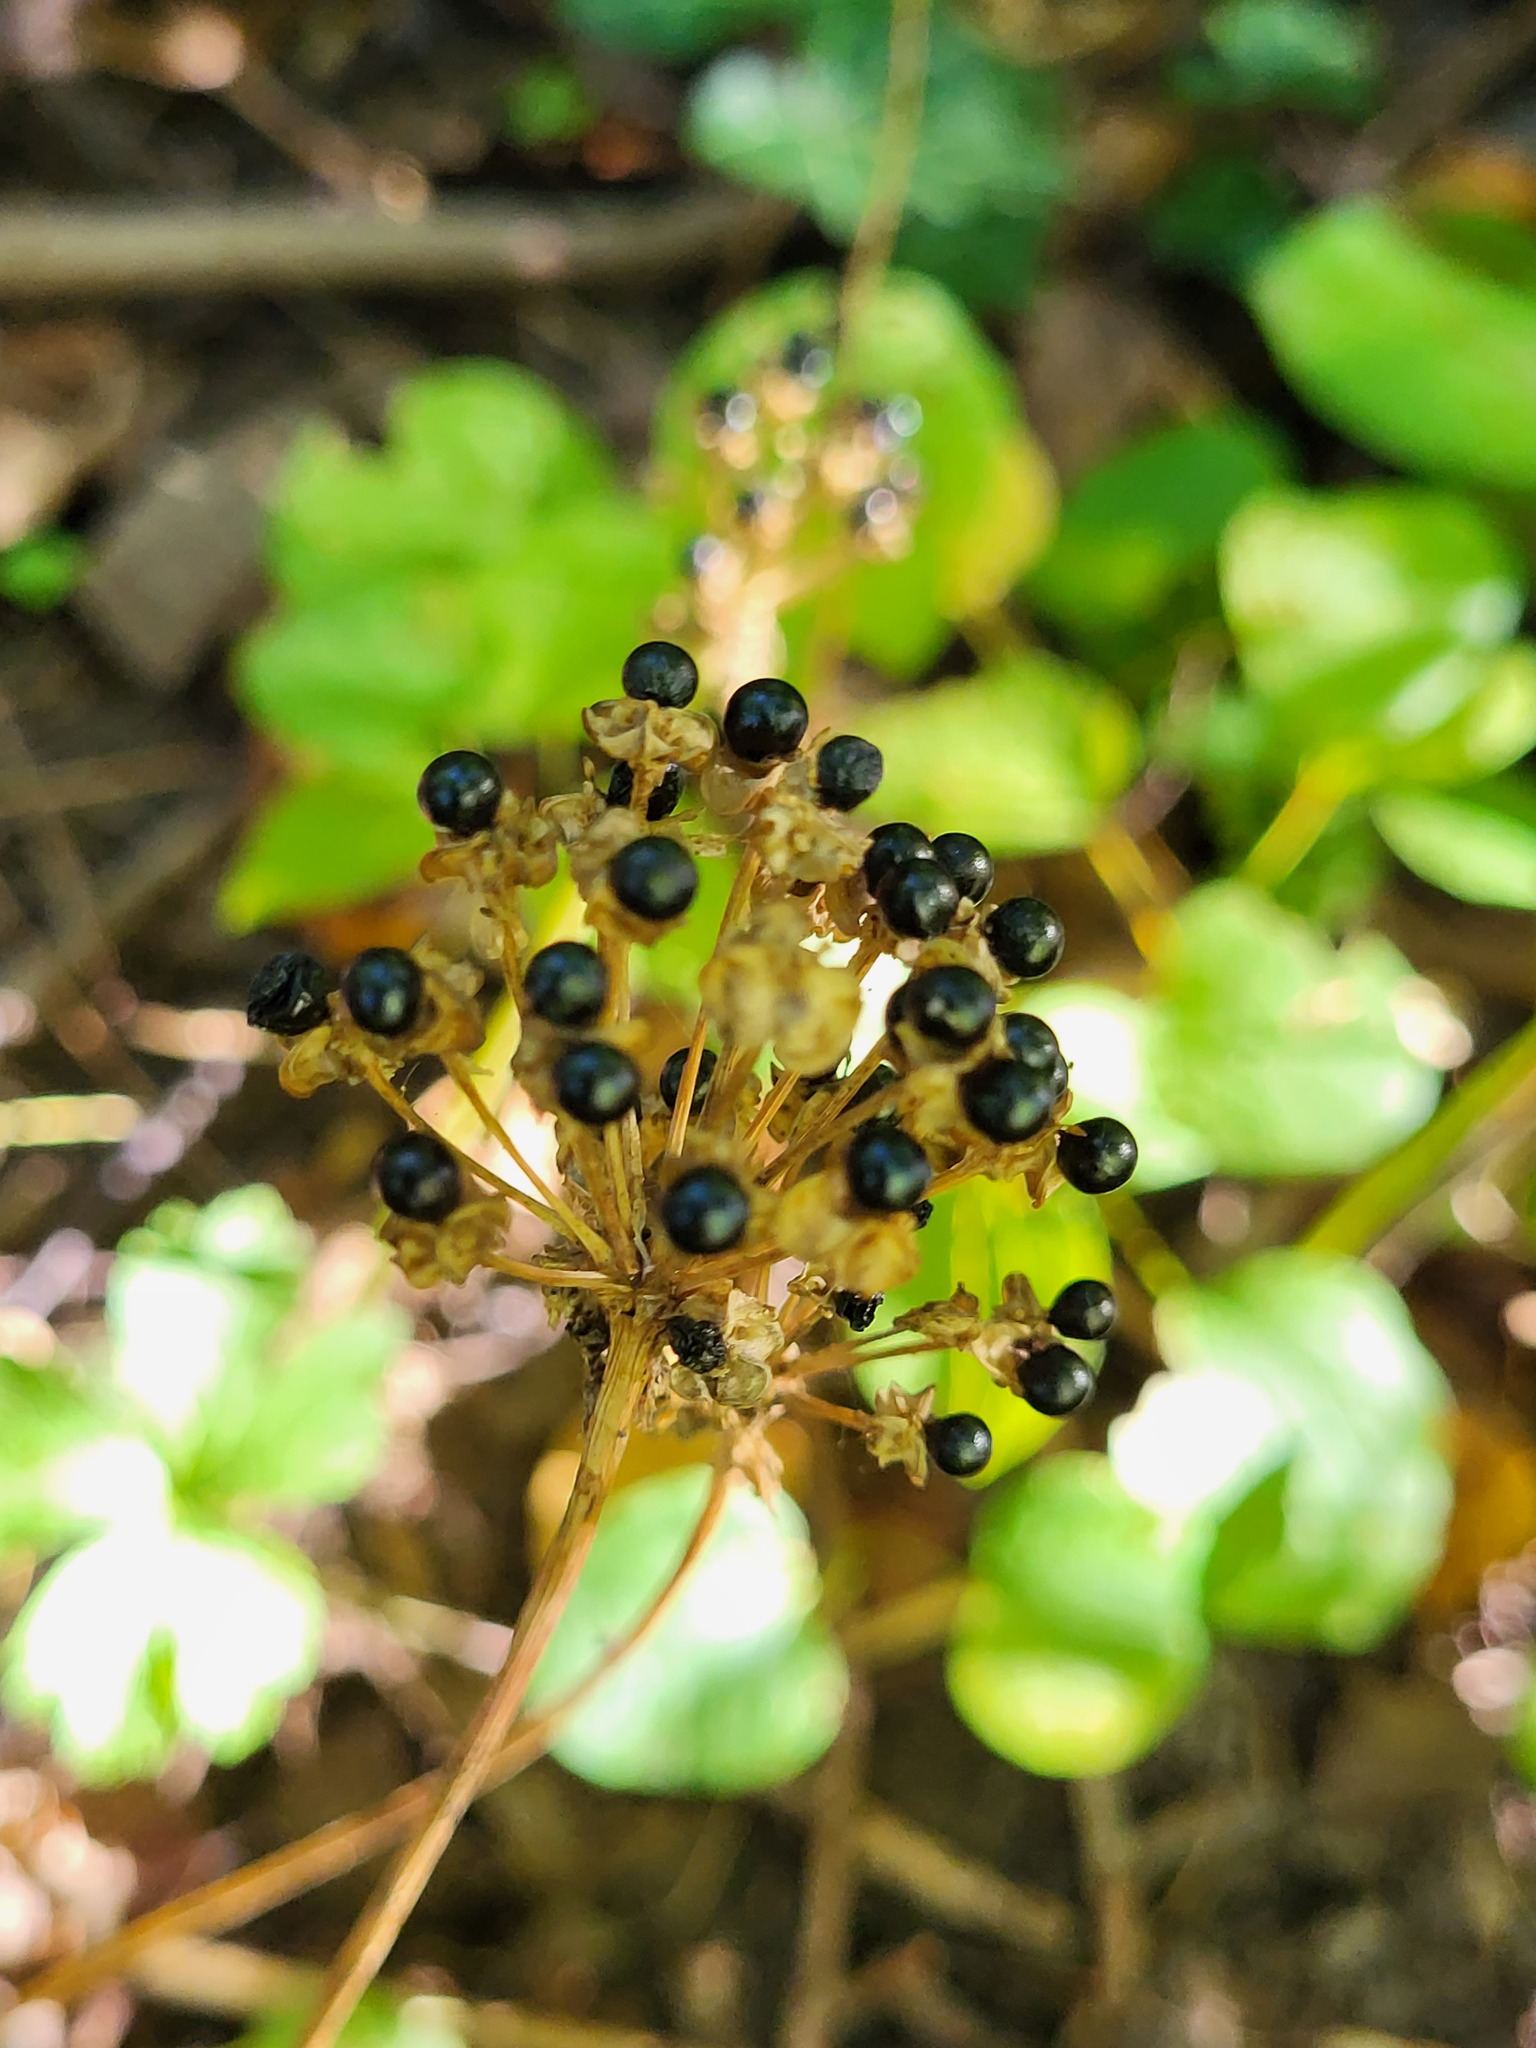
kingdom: Plantae
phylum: Tracheophyta
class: Liliopsida
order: Asparagales
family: Amaryllidaceae
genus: Allium
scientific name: Allium tricoccum
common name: Ramp
